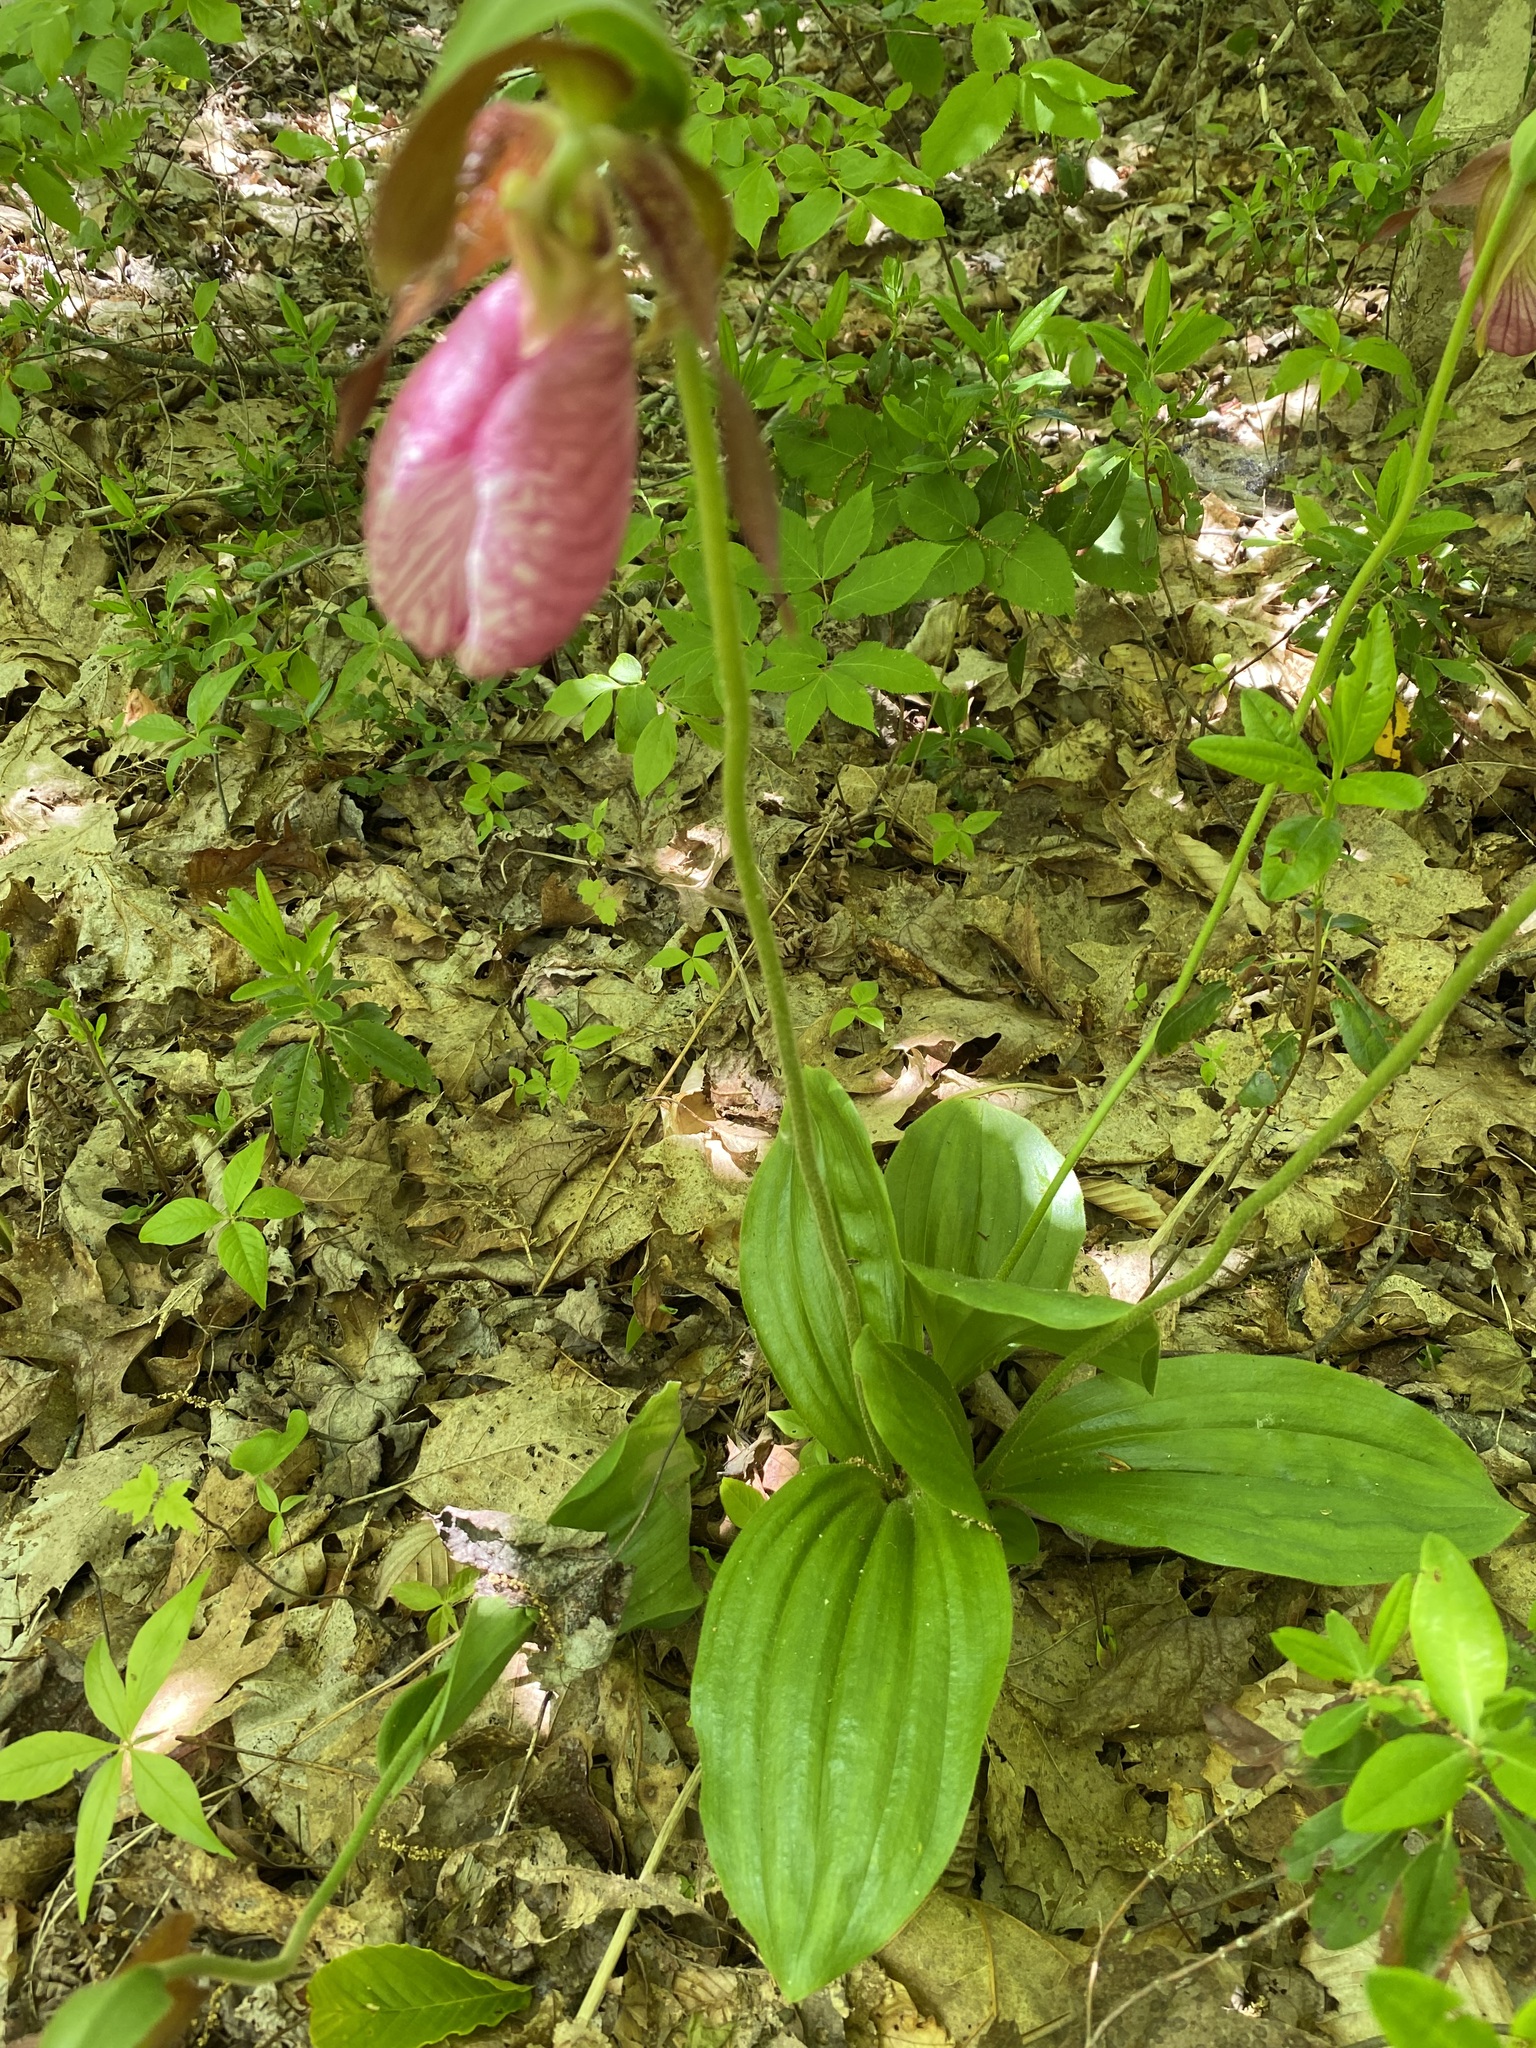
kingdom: Plantae
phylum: Tracheophyta
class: Liliopsida
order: Asparagales
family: Orchidaceae
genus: Cypripedium
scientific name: Cypripedium acaule
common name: Pink lady's-slipper
